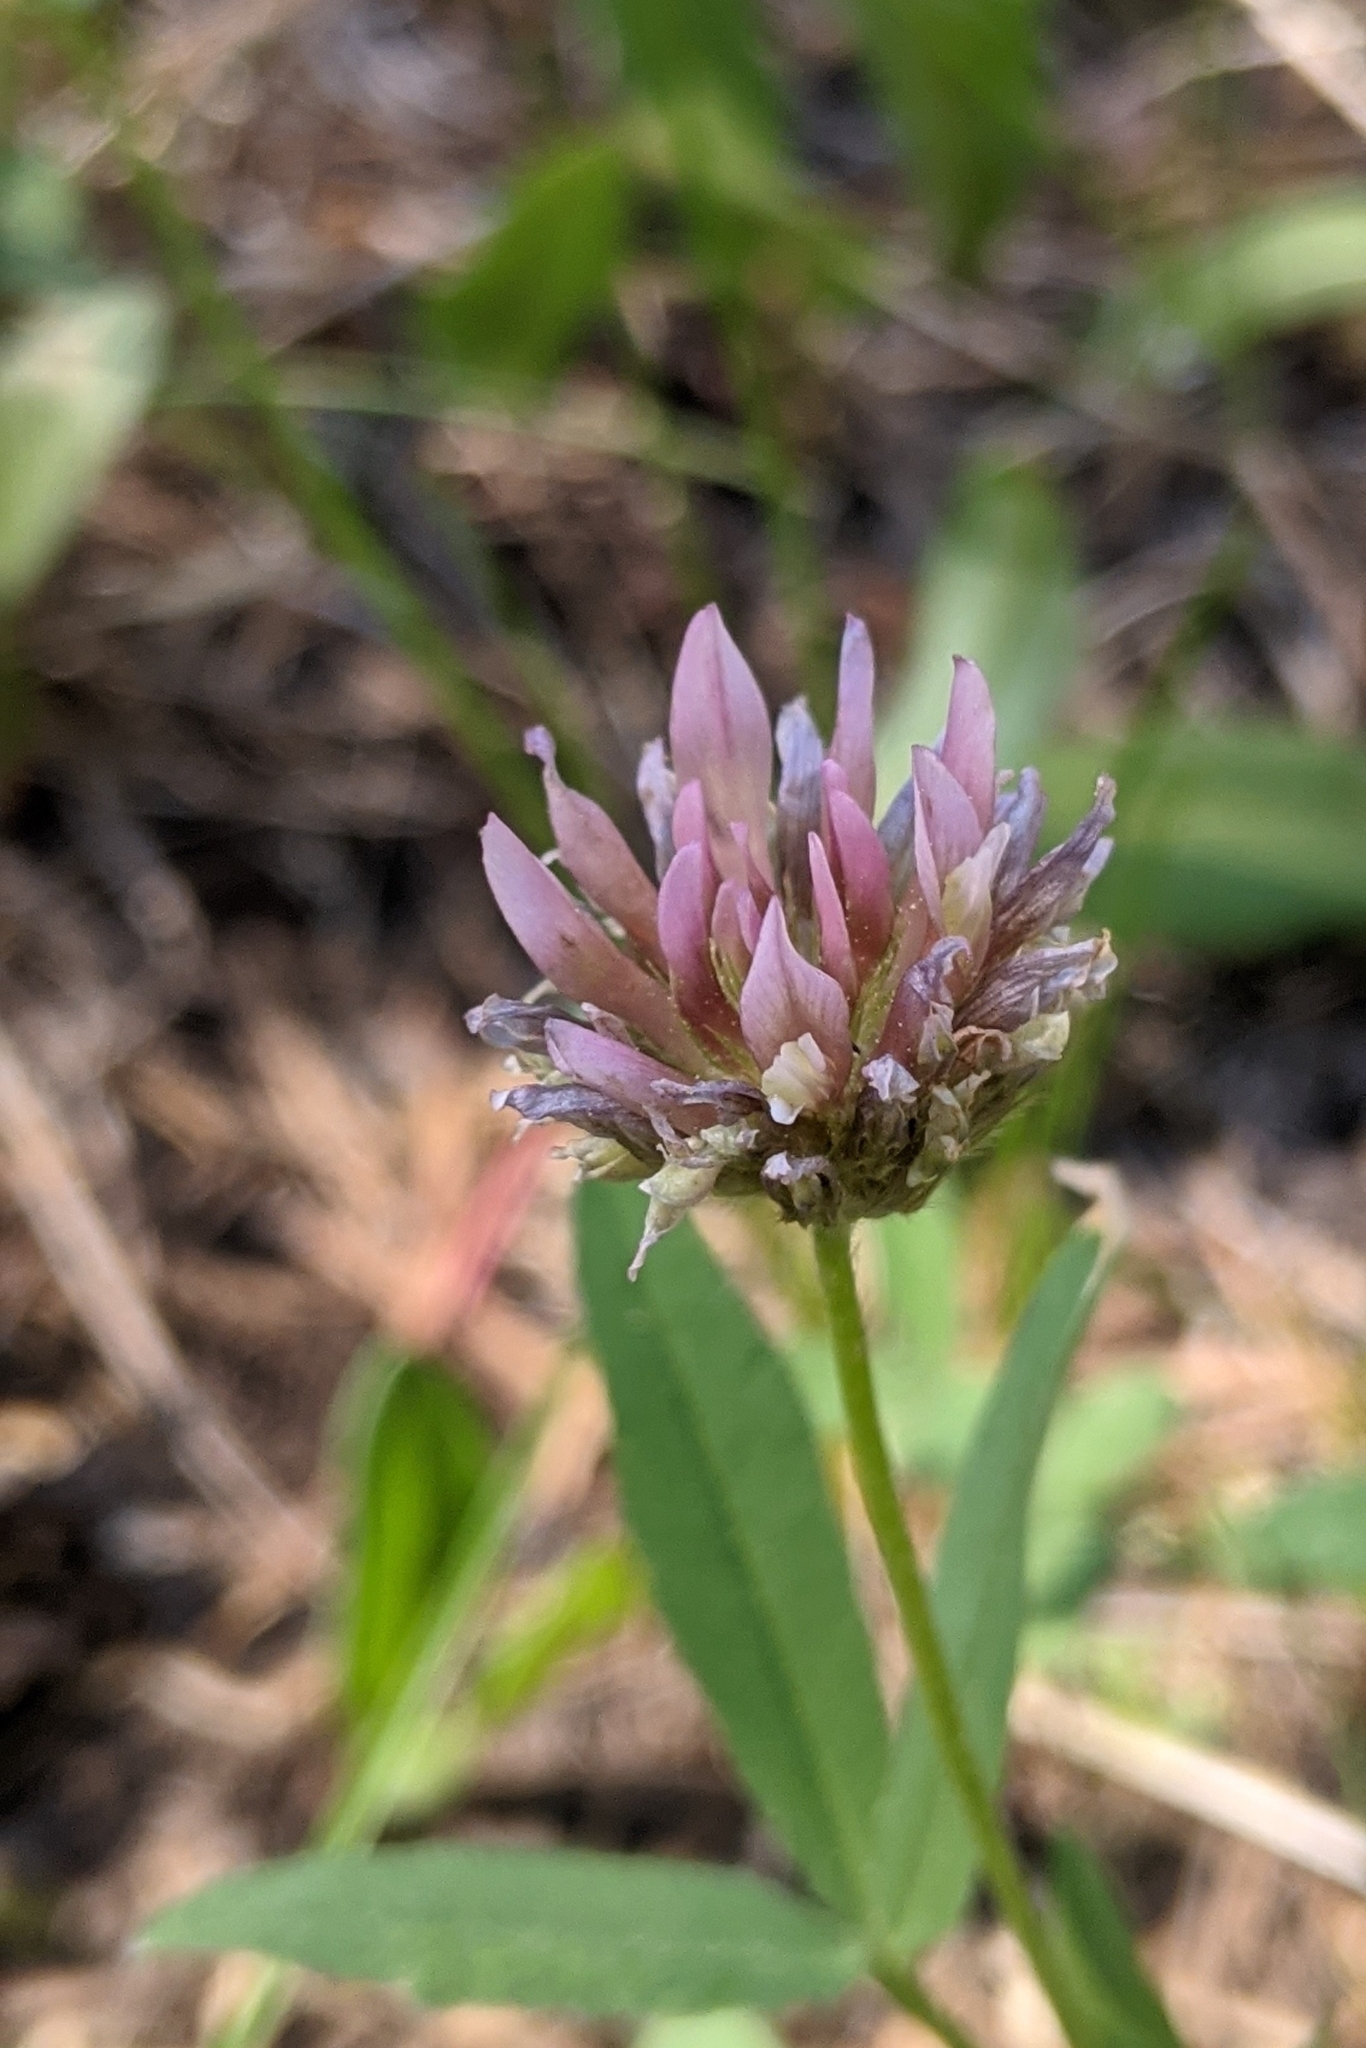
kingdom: Plantae
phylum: Tracheophyta
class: Magnoliopsida
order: Fabales
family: Fabaceae
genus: Trifolium
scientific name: Trifolium longipes
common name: Long-stalk clover
